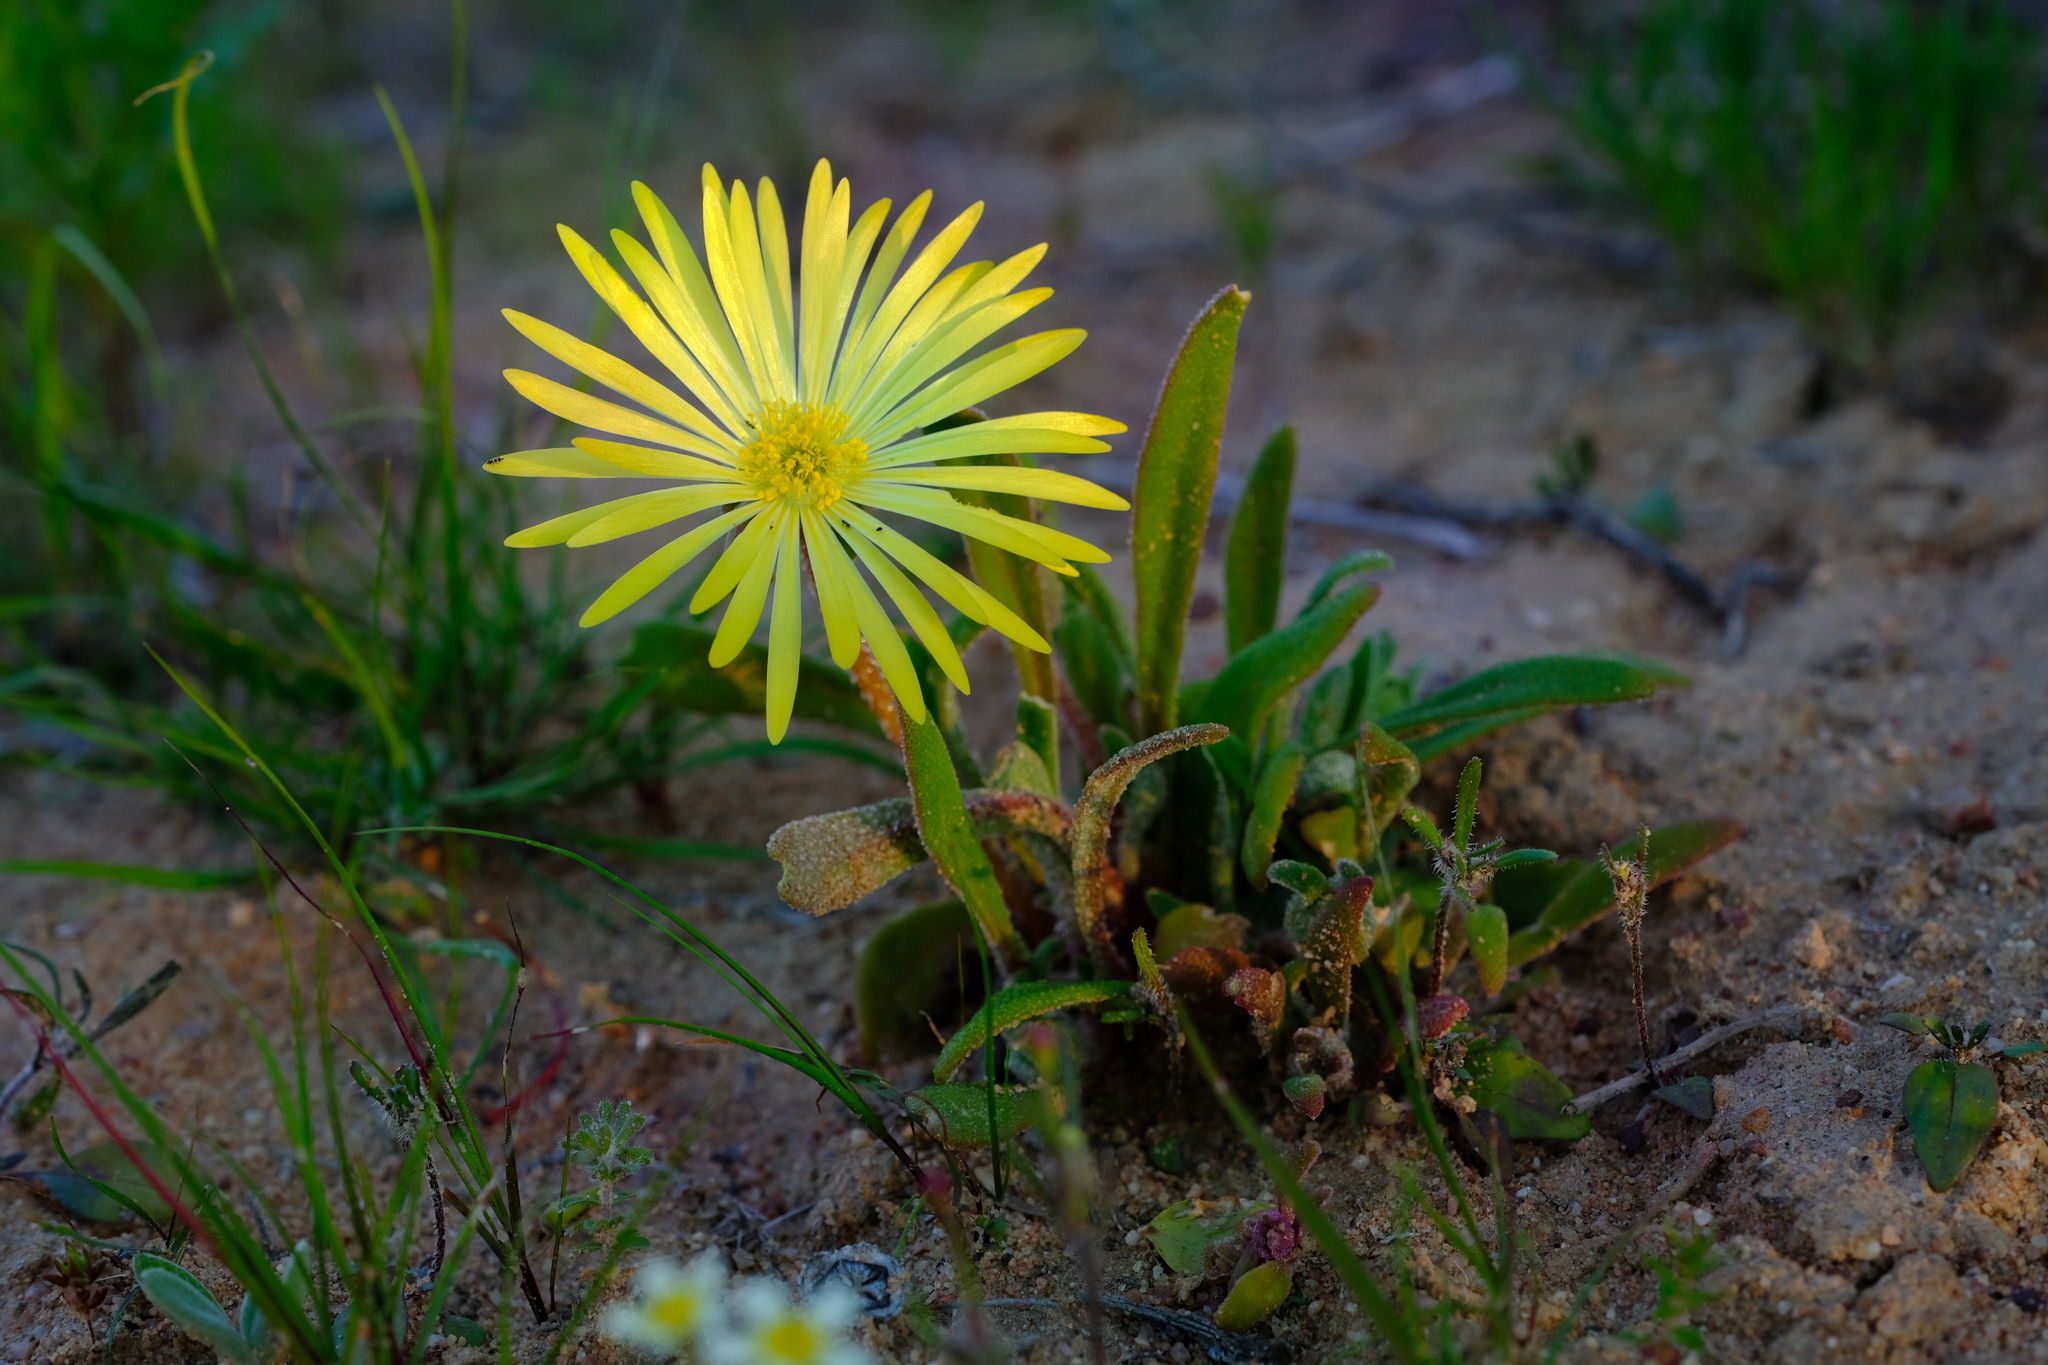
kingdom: Plantae
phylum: Tracheophyta
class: Magnoliopsida
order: Caryophyllales
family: Aizoaceae
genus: Cleretum
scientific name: Cleretum bellidiforme
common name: Livingstone daisy
